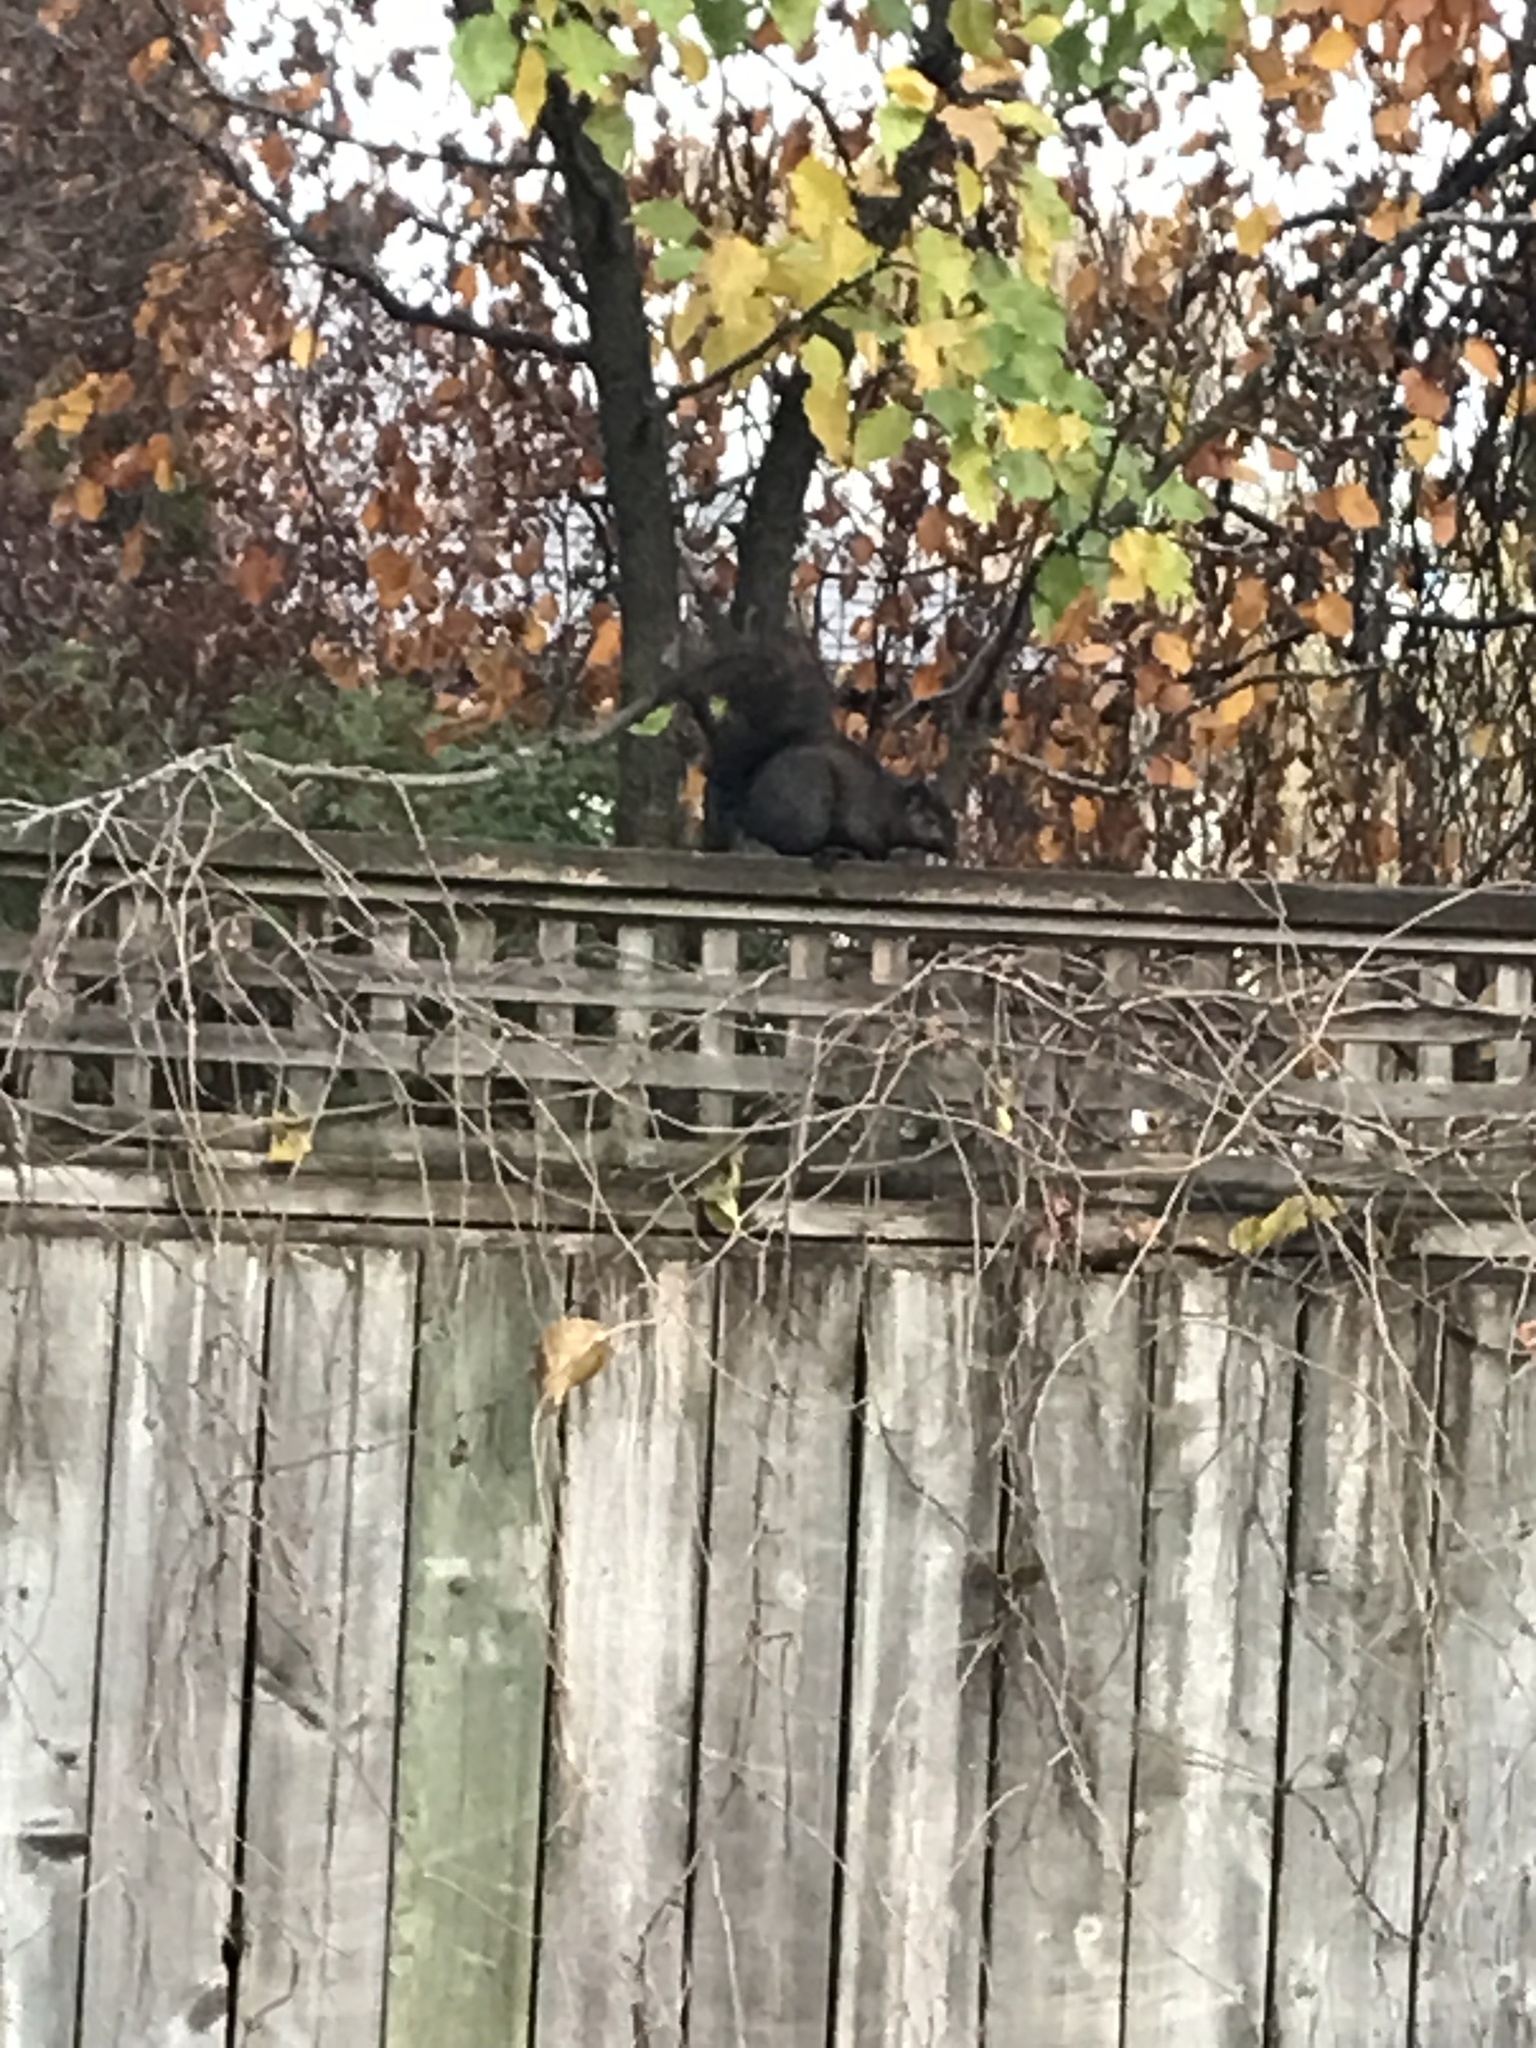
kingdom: Animalia
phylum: Chordata
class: Mammalia
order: Rodentia
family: Sciuridae
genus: Sciurus
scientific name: Sciurus carolinensis
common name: Eastern gray squirrel
